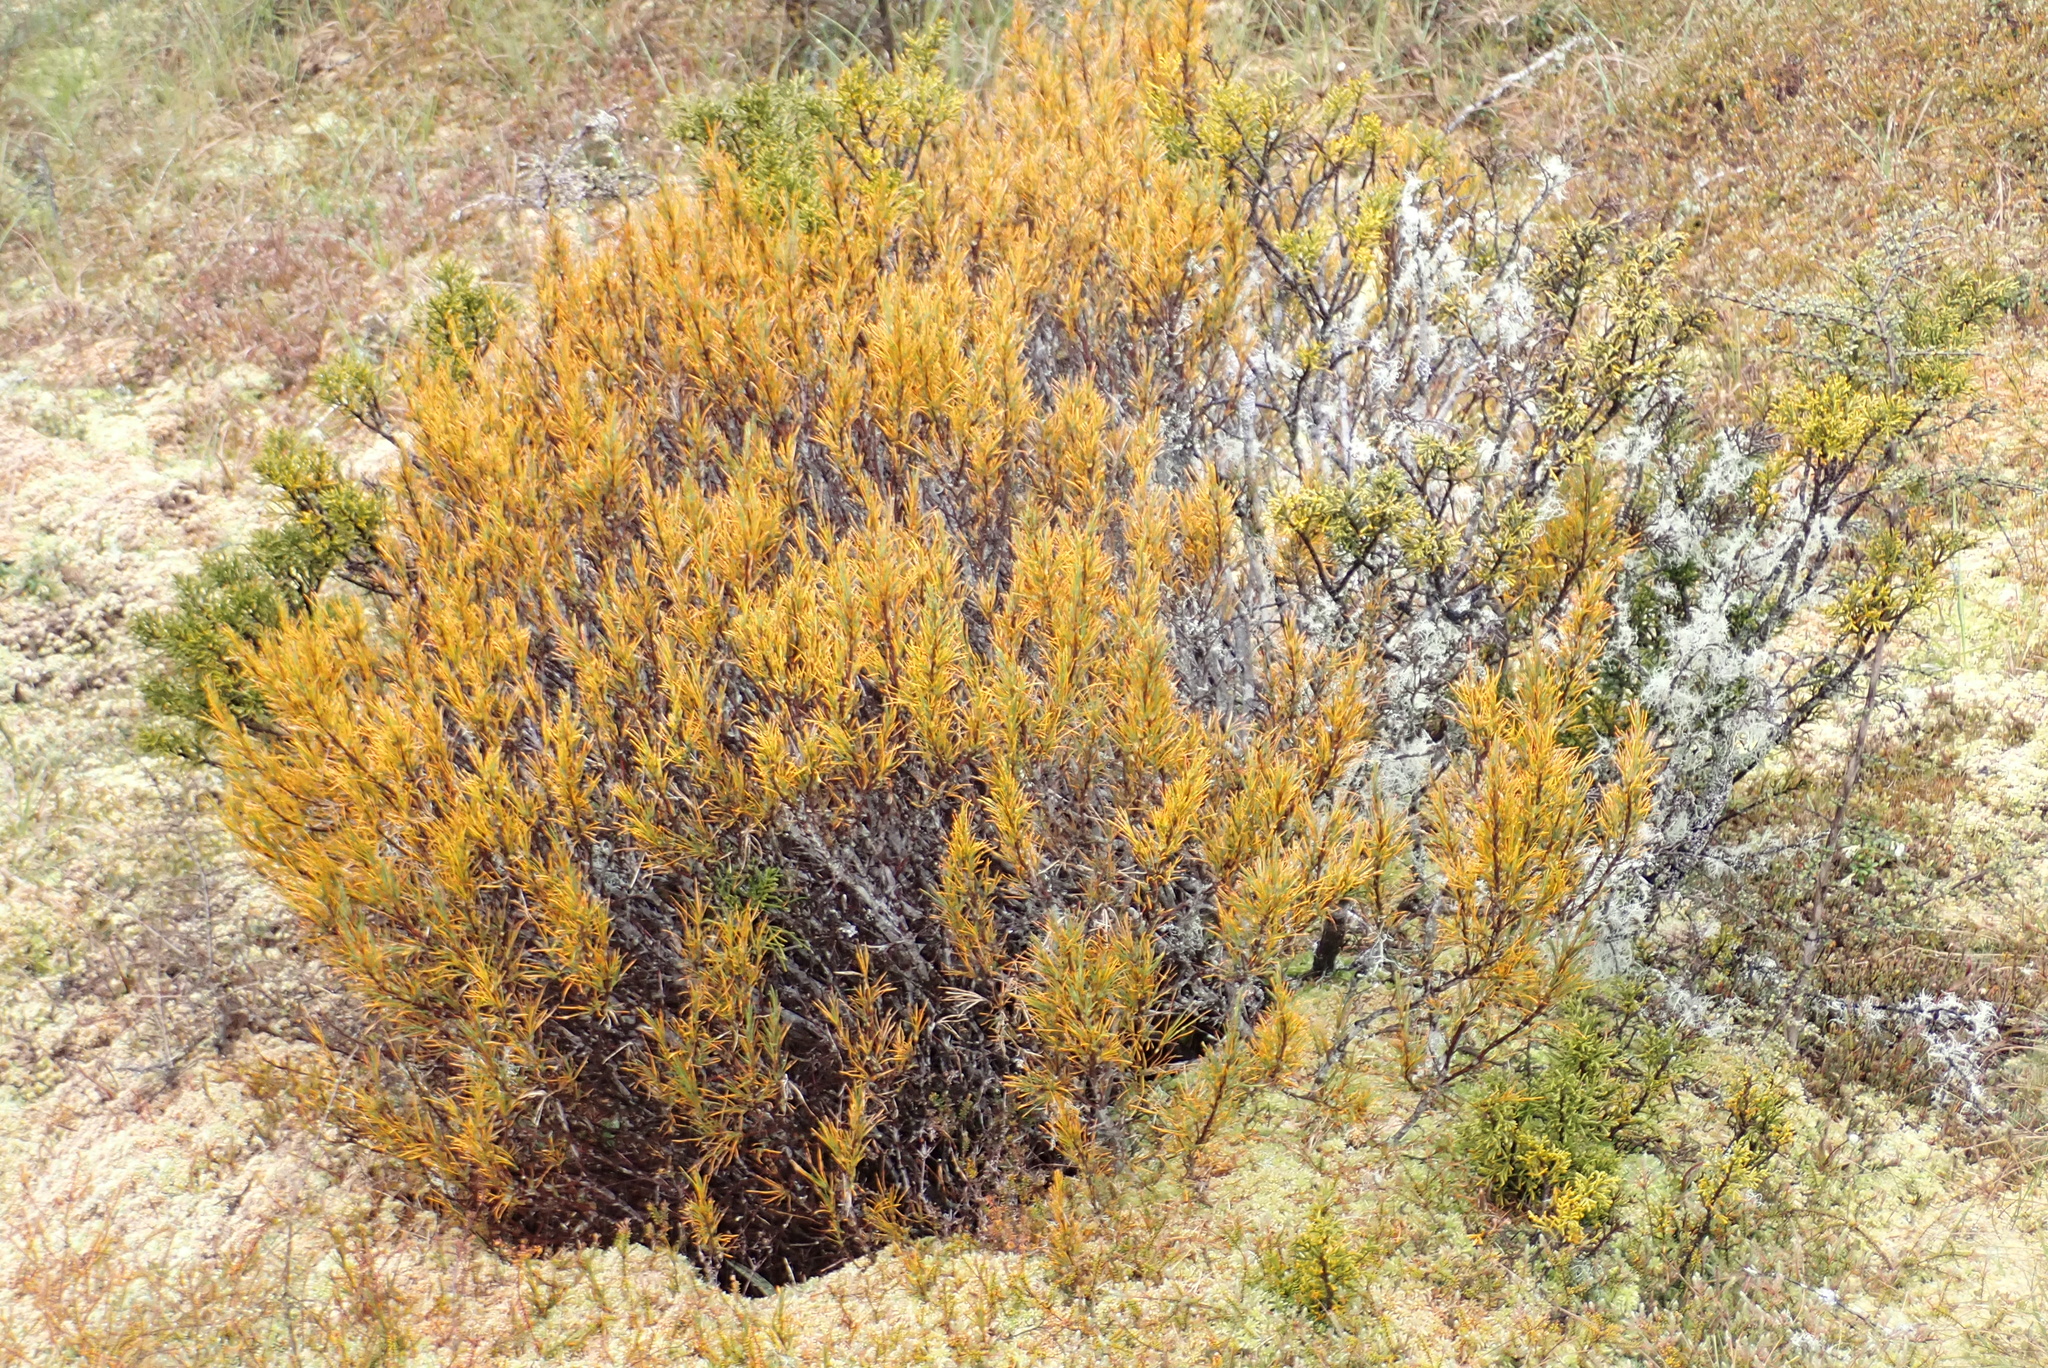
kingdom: Plantae
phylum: Tracheophyta
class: Magnoliopsida
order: Ericales
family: Ericaceae
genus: Dracophyllum
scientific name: Dracophyllum rosmarinifolium
